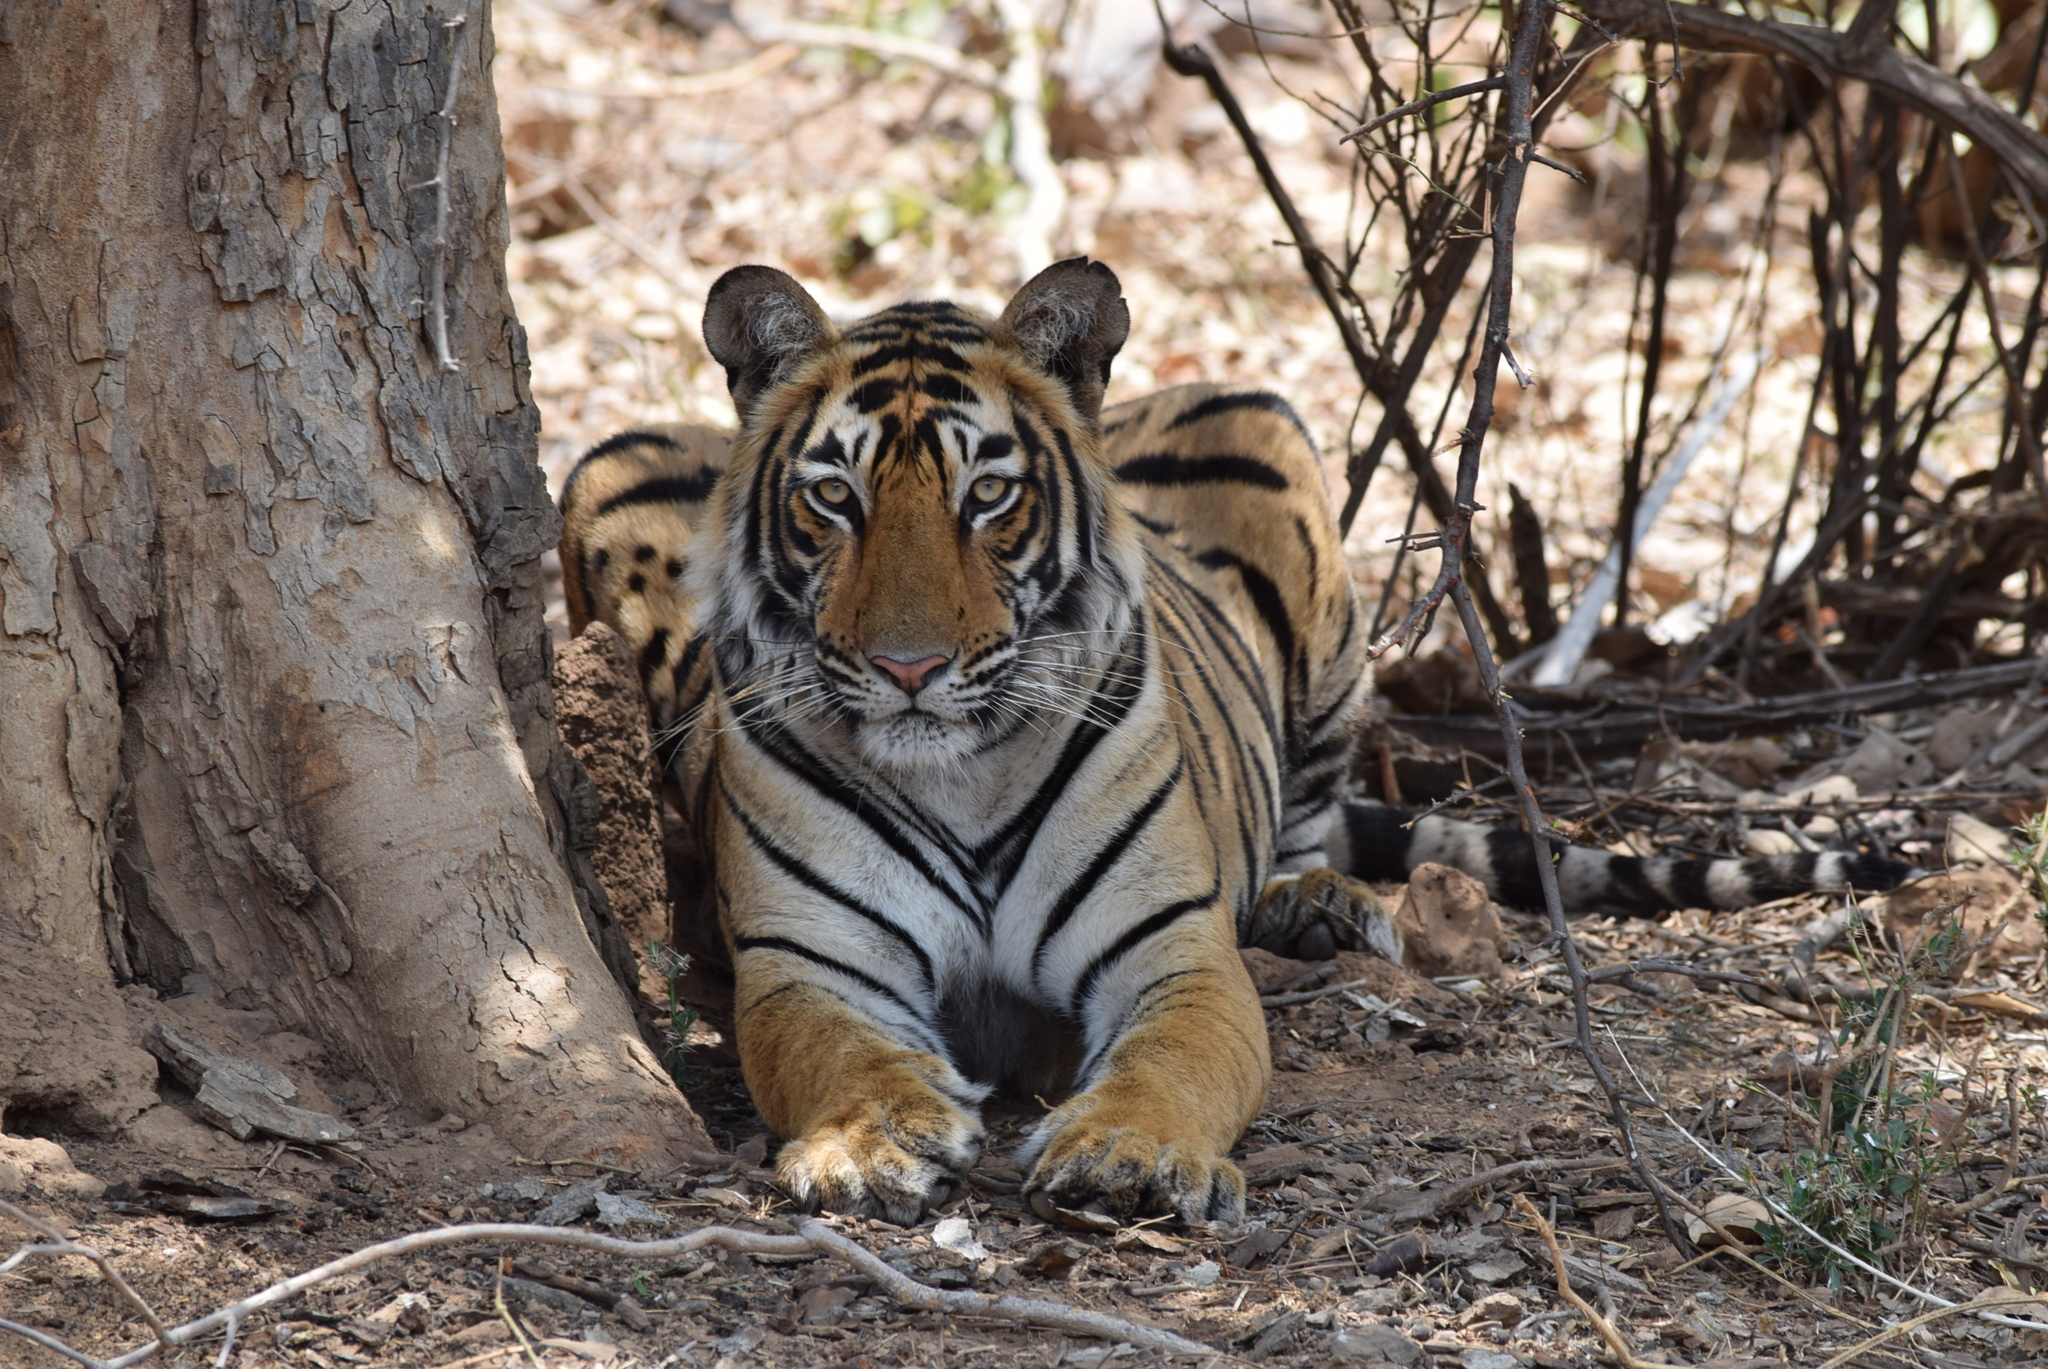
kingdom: Animalia
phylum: Chordata
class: Mammalia
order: Carnivora
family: Felidae
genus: Panthera
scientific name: Panthera tigris
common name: Tiger
